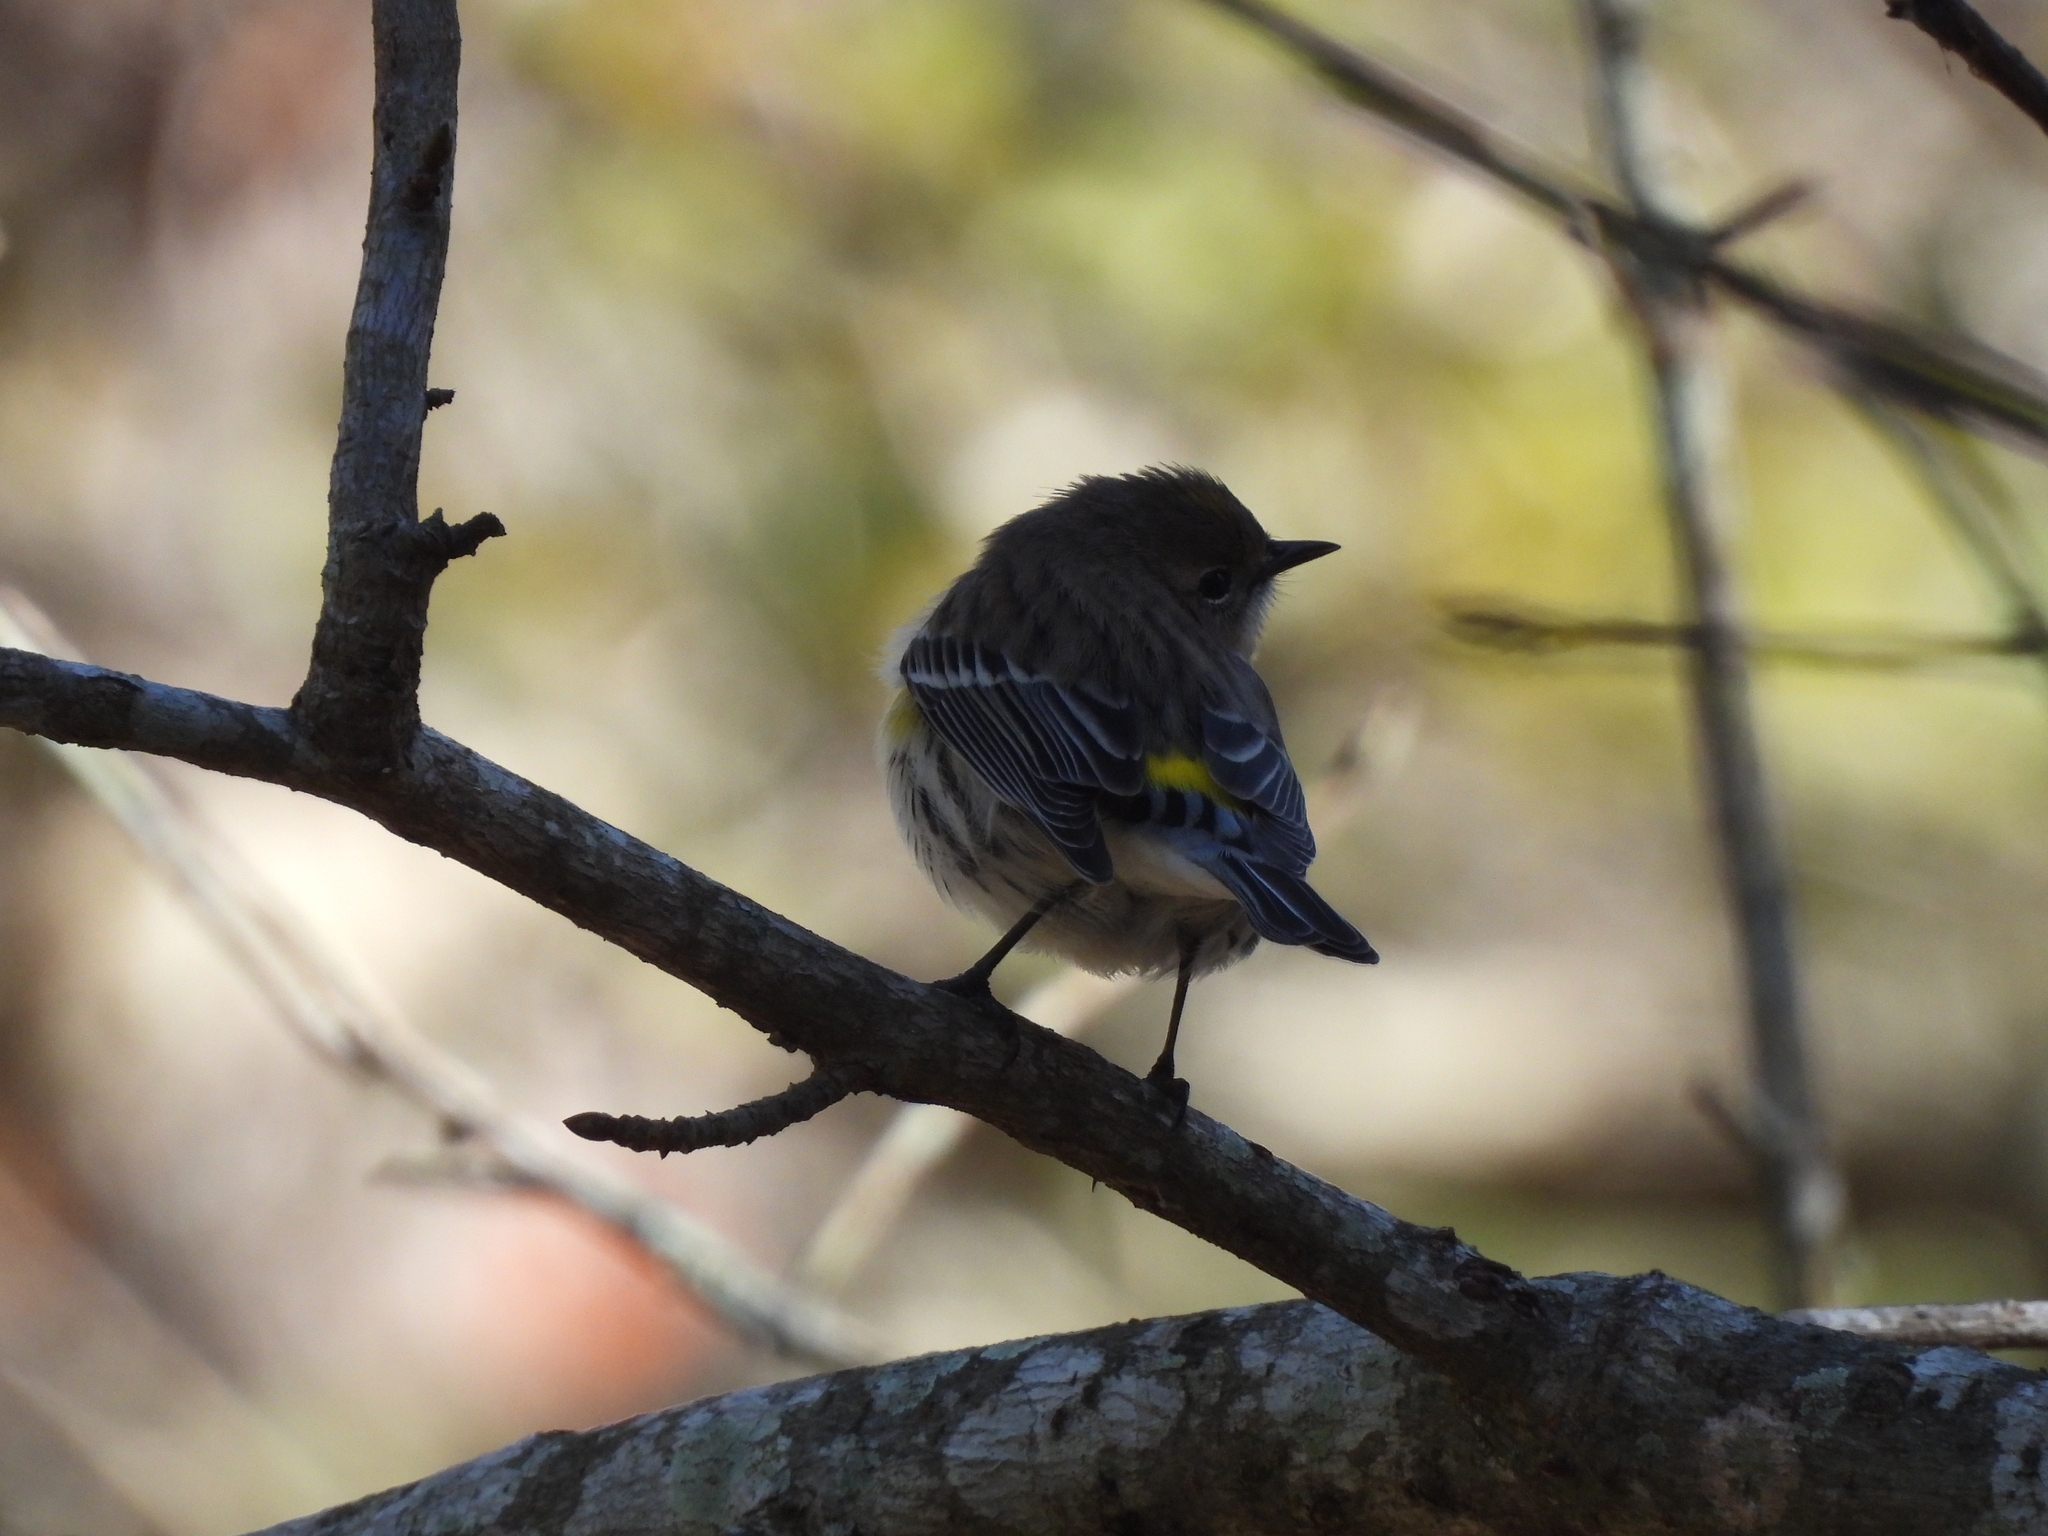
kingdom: Animalia
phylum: Chordata
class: Aves
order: Passeriformes
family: Parulidae
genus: Setophaga
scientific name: Setophaga coronata
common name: Myrtle warbler
